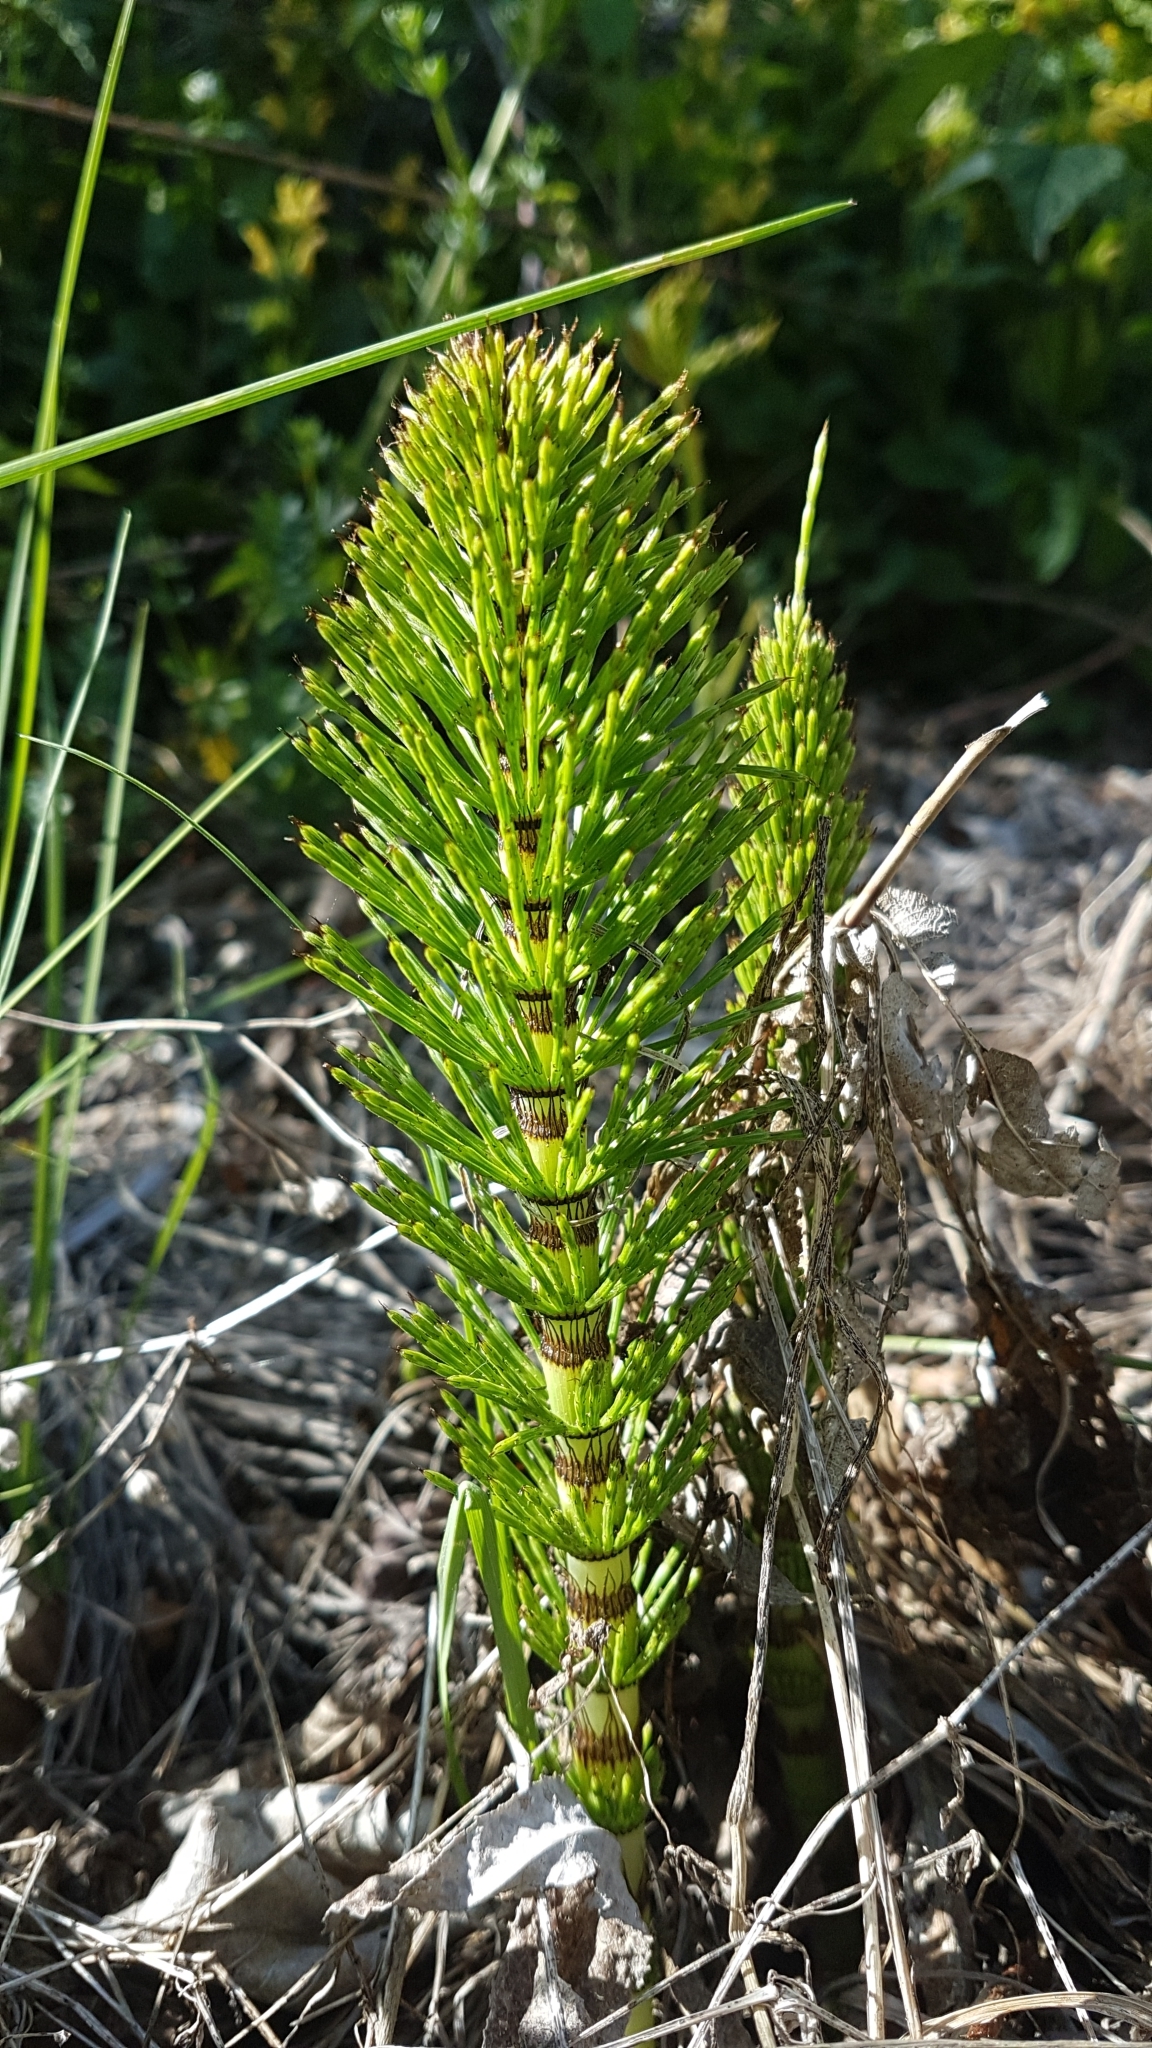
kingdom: Plantae
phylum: Tracheophyta
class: Polypodiopsida
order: Equisetales
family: Equisetaceae
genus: Equisetum
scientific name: Equisetum telmateia
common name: Great horsetail
